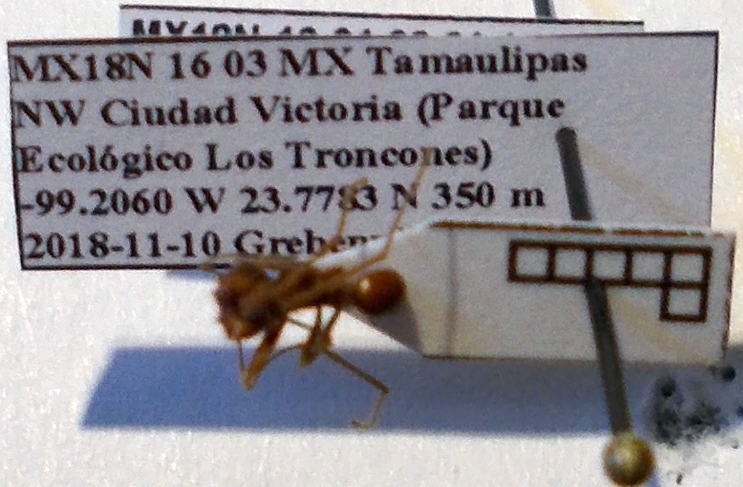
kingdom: Animalia
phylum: Arthropoda
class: Insecta
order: Hymenoptera
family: Formicidae
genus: Atta
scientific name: Atta mexicana
